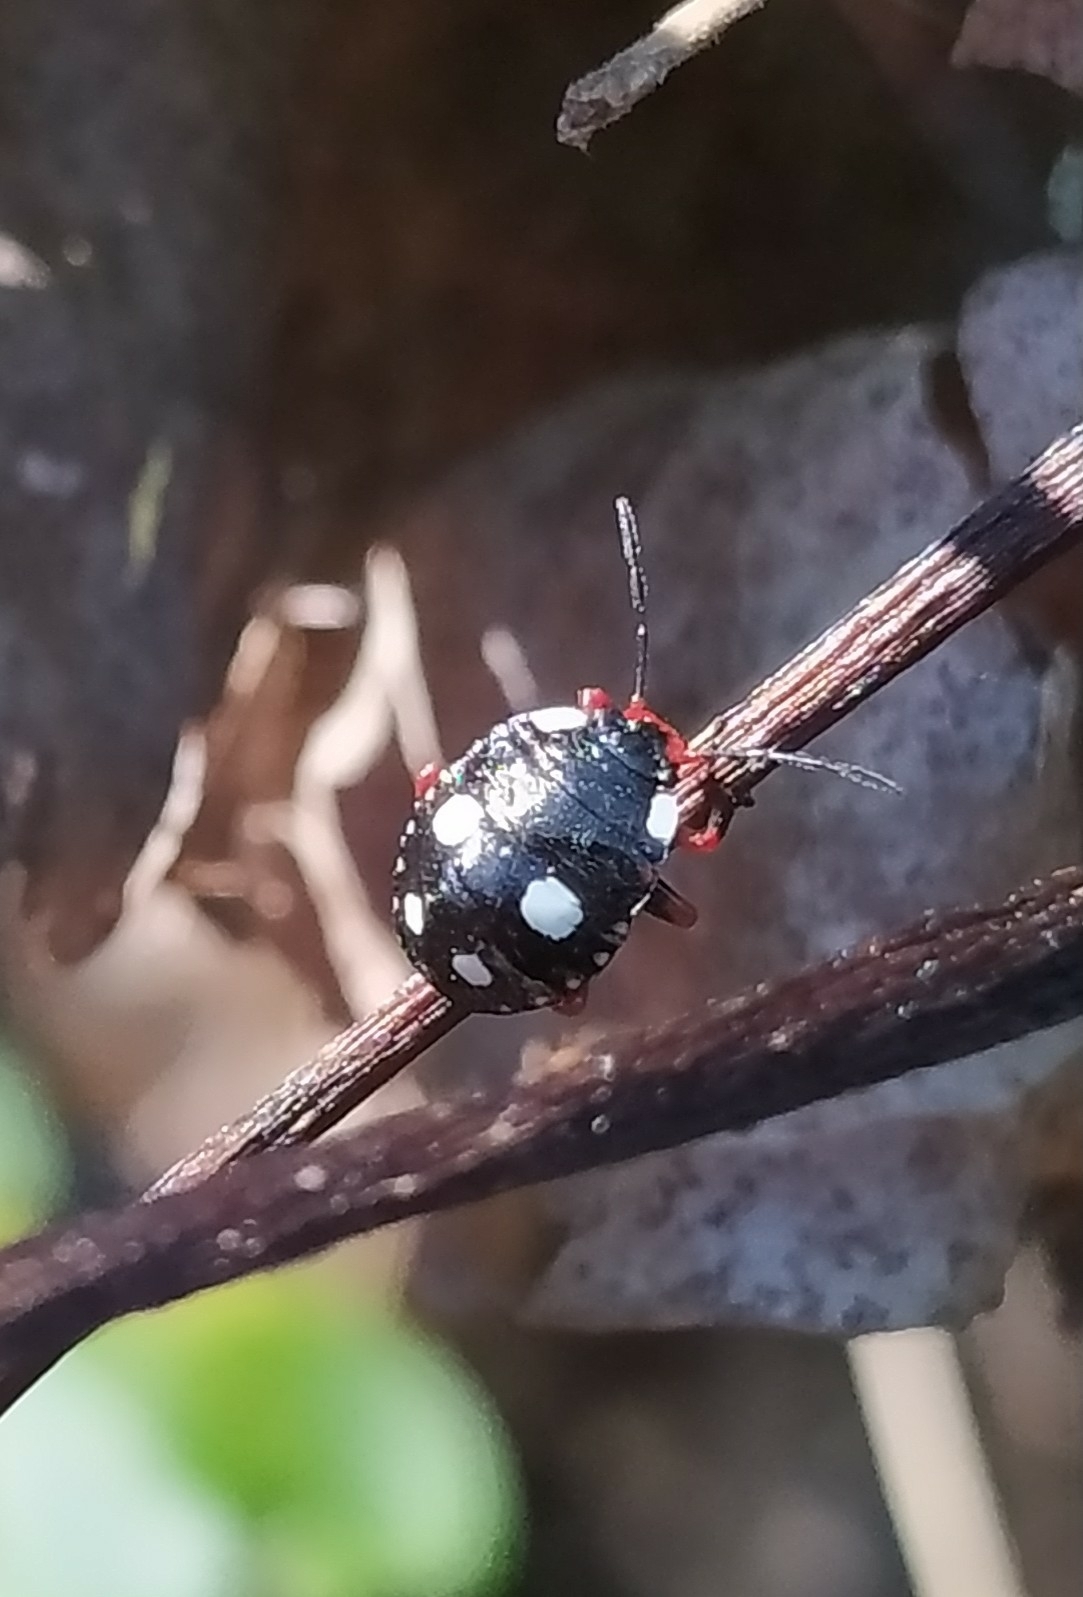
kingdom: Animalia
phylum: Arthropoda
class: Insecta
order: Hemiptera
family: Pentatomidae
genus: Chinavia
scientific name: Chinavia erythrocnemis
